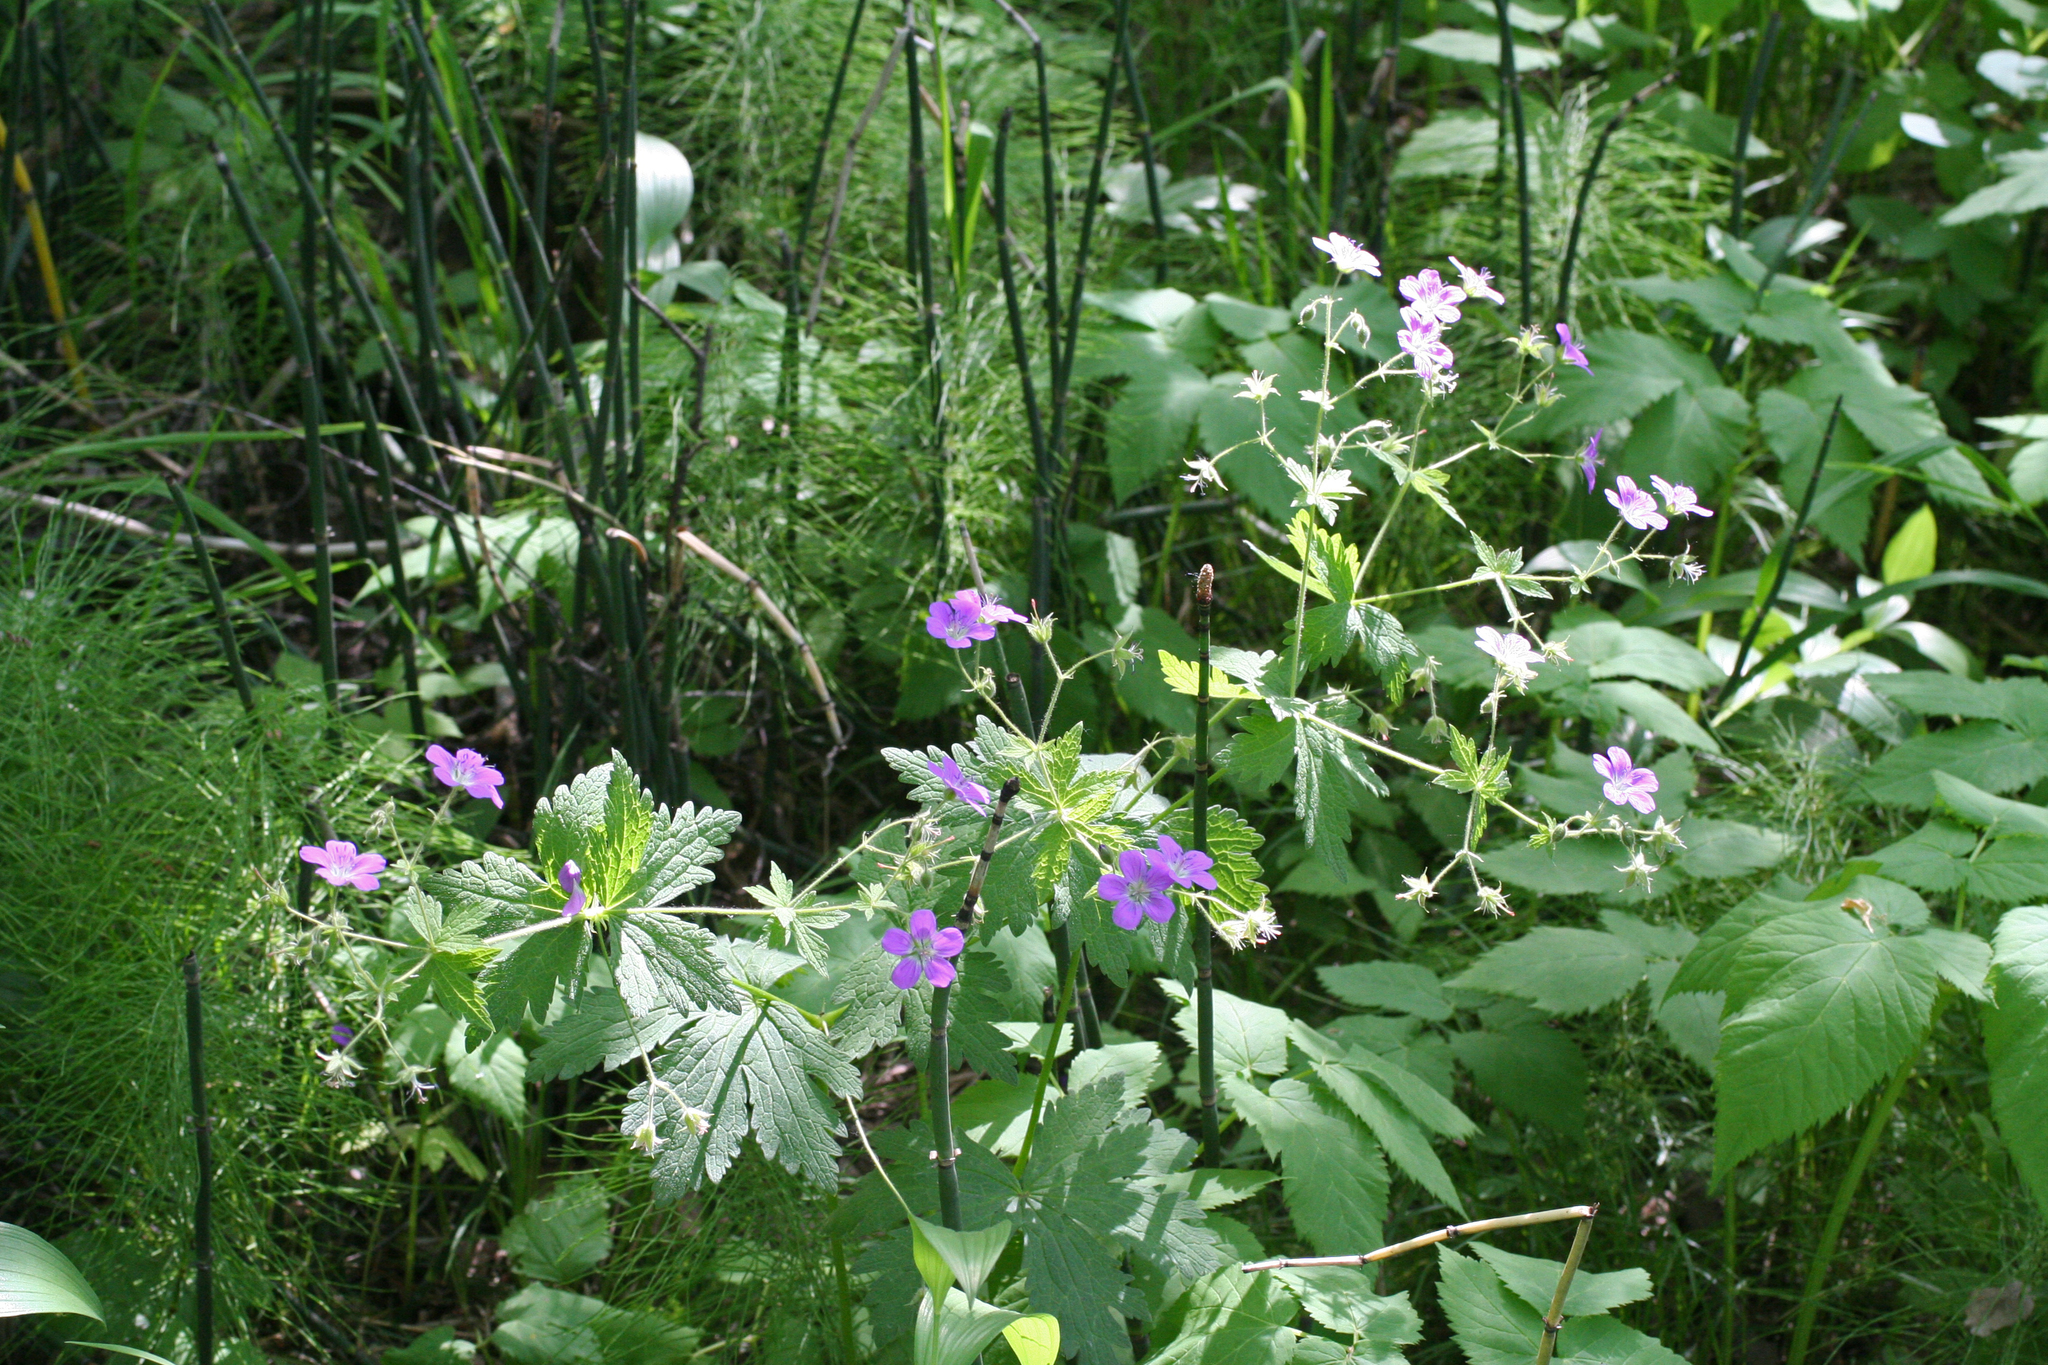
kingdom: Plantae
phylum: Tracheophyta
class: Magnoliopsida
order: Geraniales
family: Geraniaceae
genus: Geranium
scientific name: Geranium sylvaticum
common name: Wood crane's-bill
